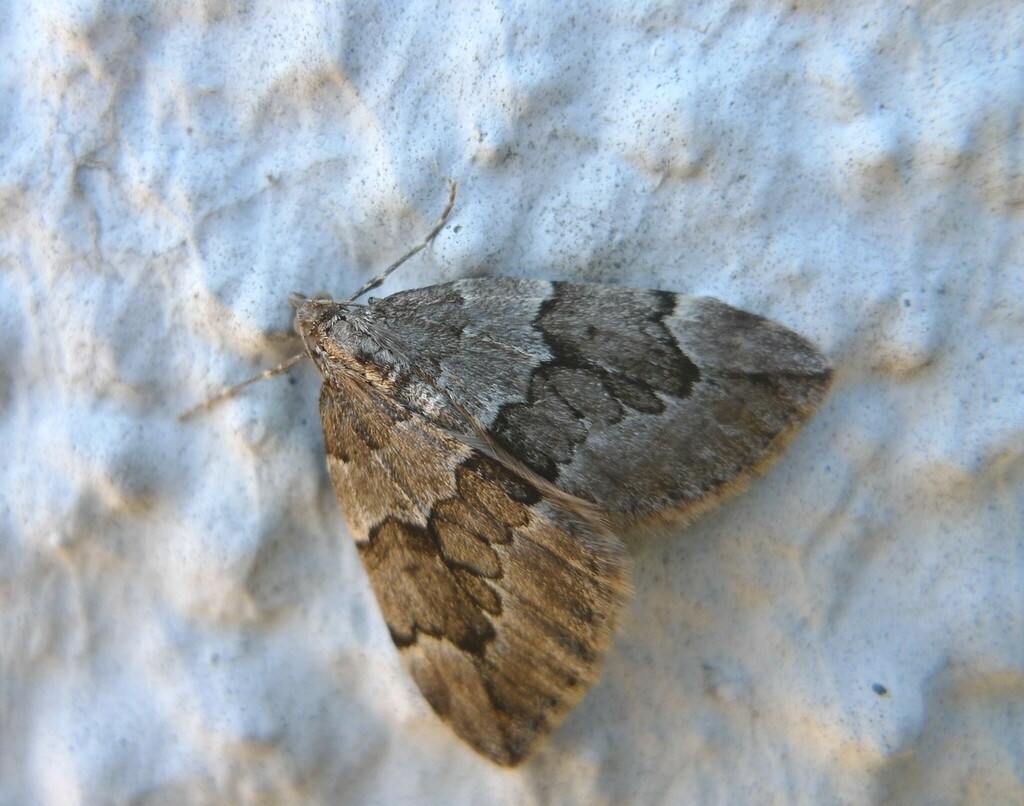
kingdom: Animalia
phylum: Arthropoda
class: Insecta
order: Lepidoptera
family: Geometridae
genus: Thera
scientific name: Thera juniperata
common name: Juniper carpet
